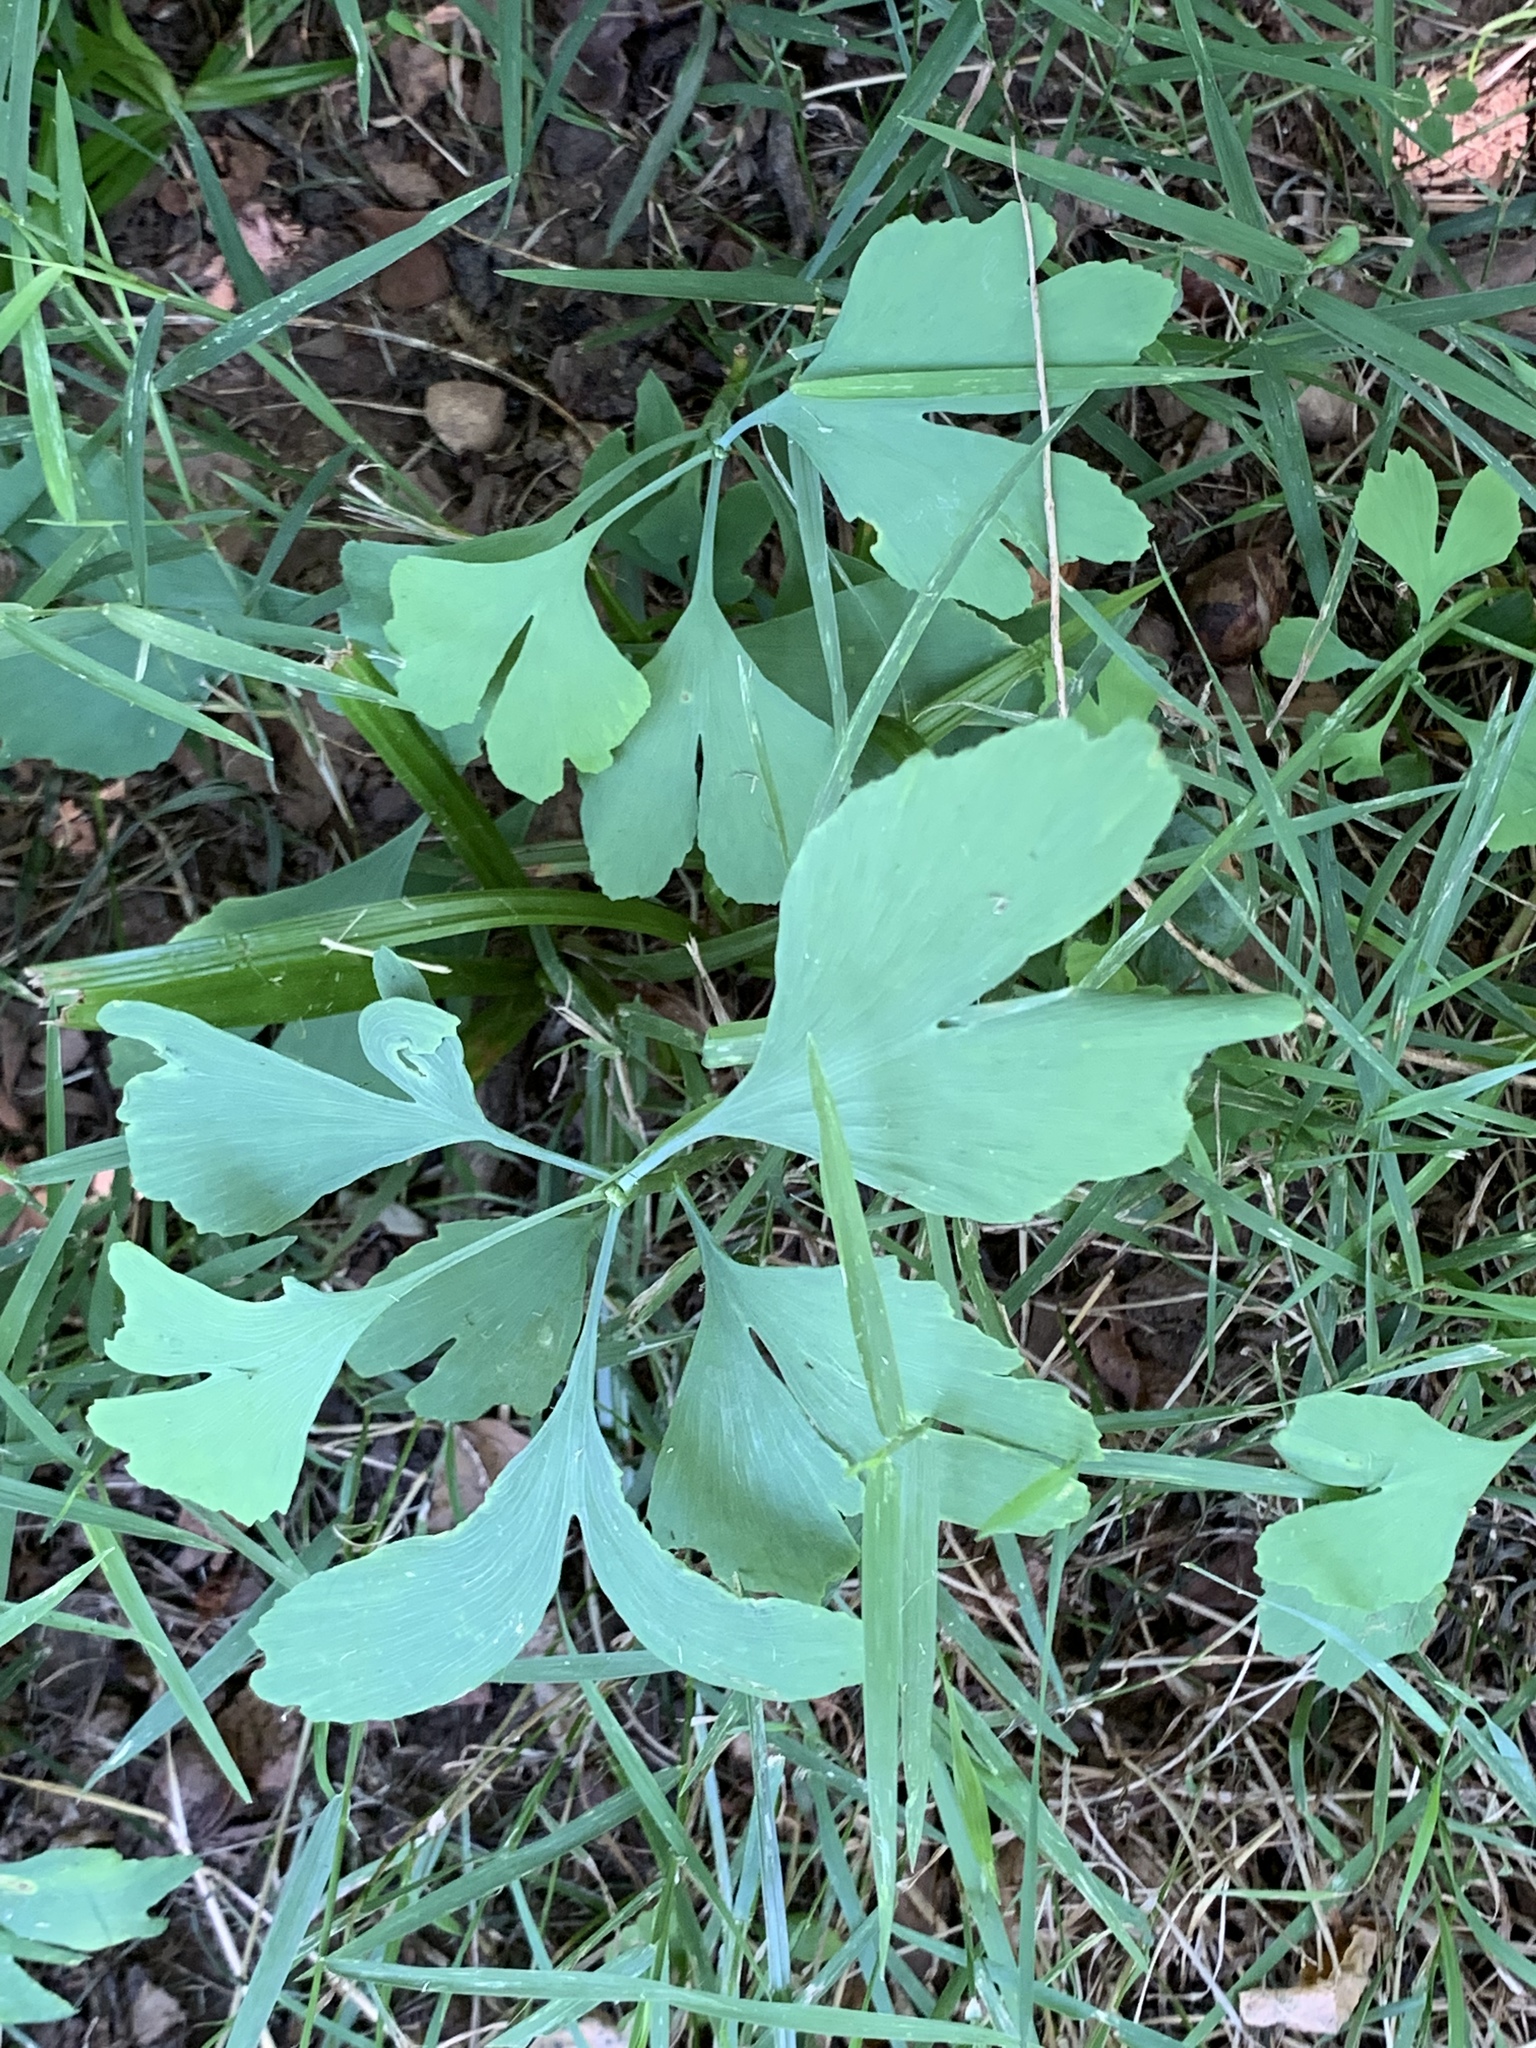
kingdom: Plantae
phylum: Tracheophyta
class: Ginkgoopsida
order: Ginkgoales
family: Ginkgoaceae
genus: Ginkgo
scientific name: Ginkgo biloba
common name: Ginkgo
